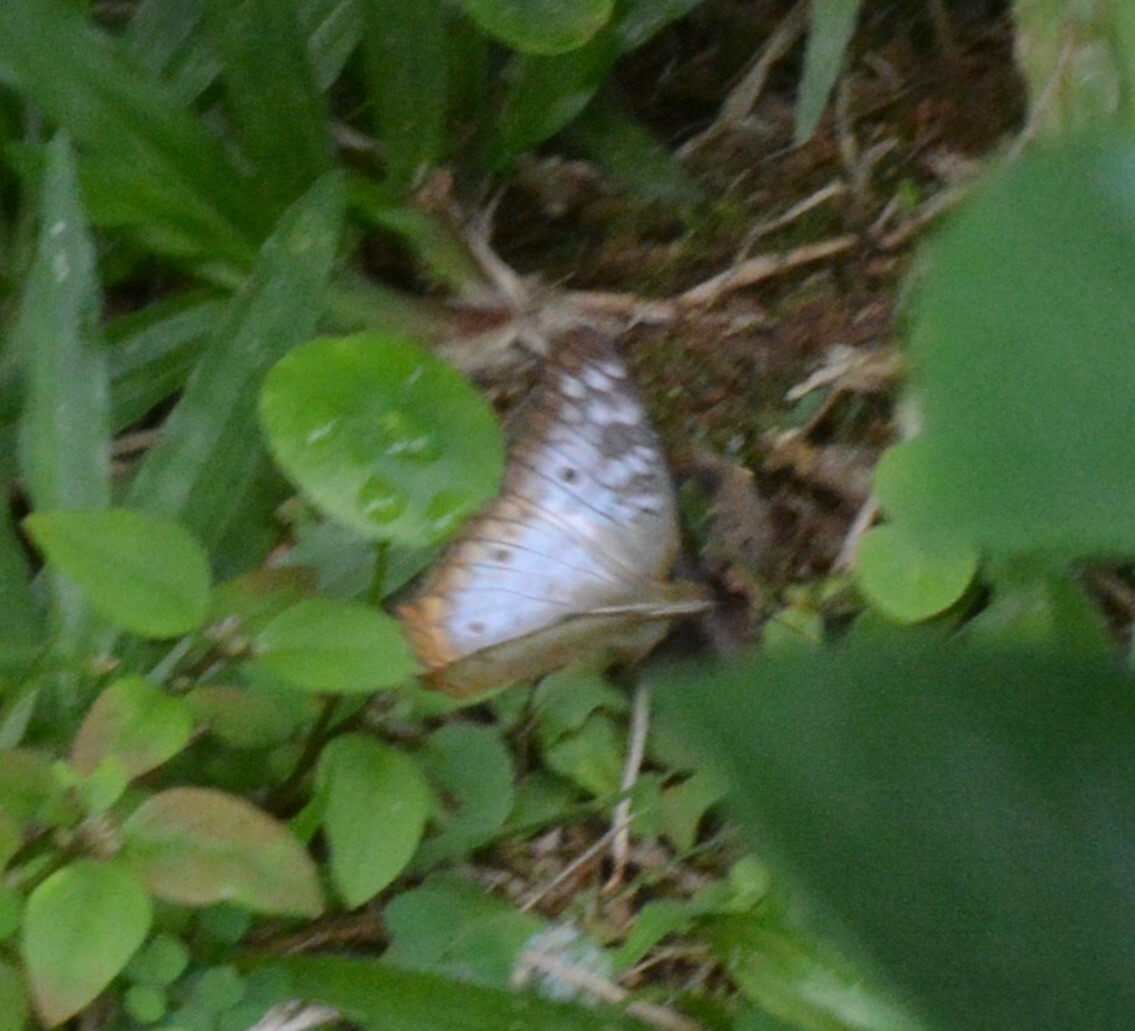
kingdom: Animalia
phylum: Arthropoda
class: Insecta
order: Lepidoptera
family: Nymphalidae
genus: Anartia
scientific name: Anartia jatrophae
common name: White peacock
